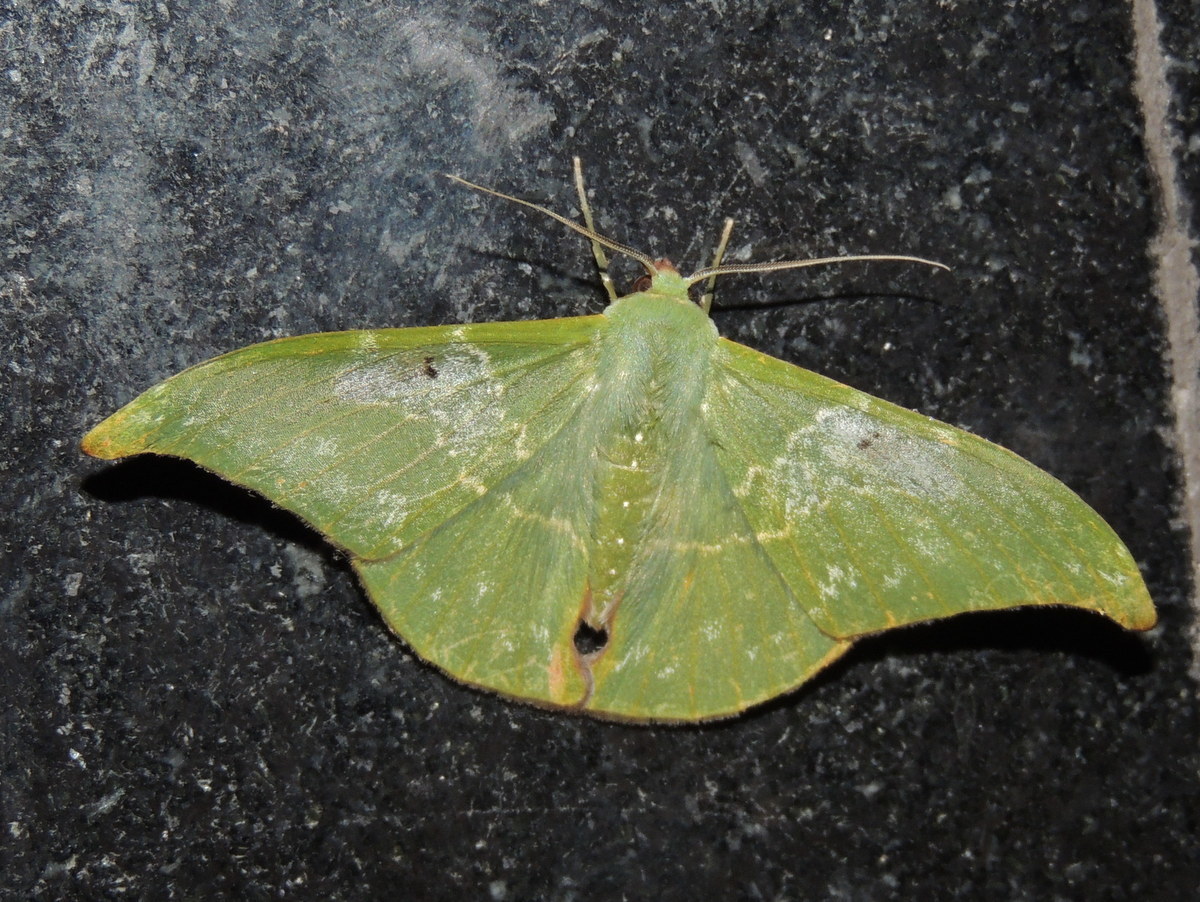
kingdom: Animalia
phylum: Arthropoda
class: Insecta
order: Lepidoptera
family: Geometridae
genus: Tanaorhinus
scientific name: Tanaorhinus viridiluteata
